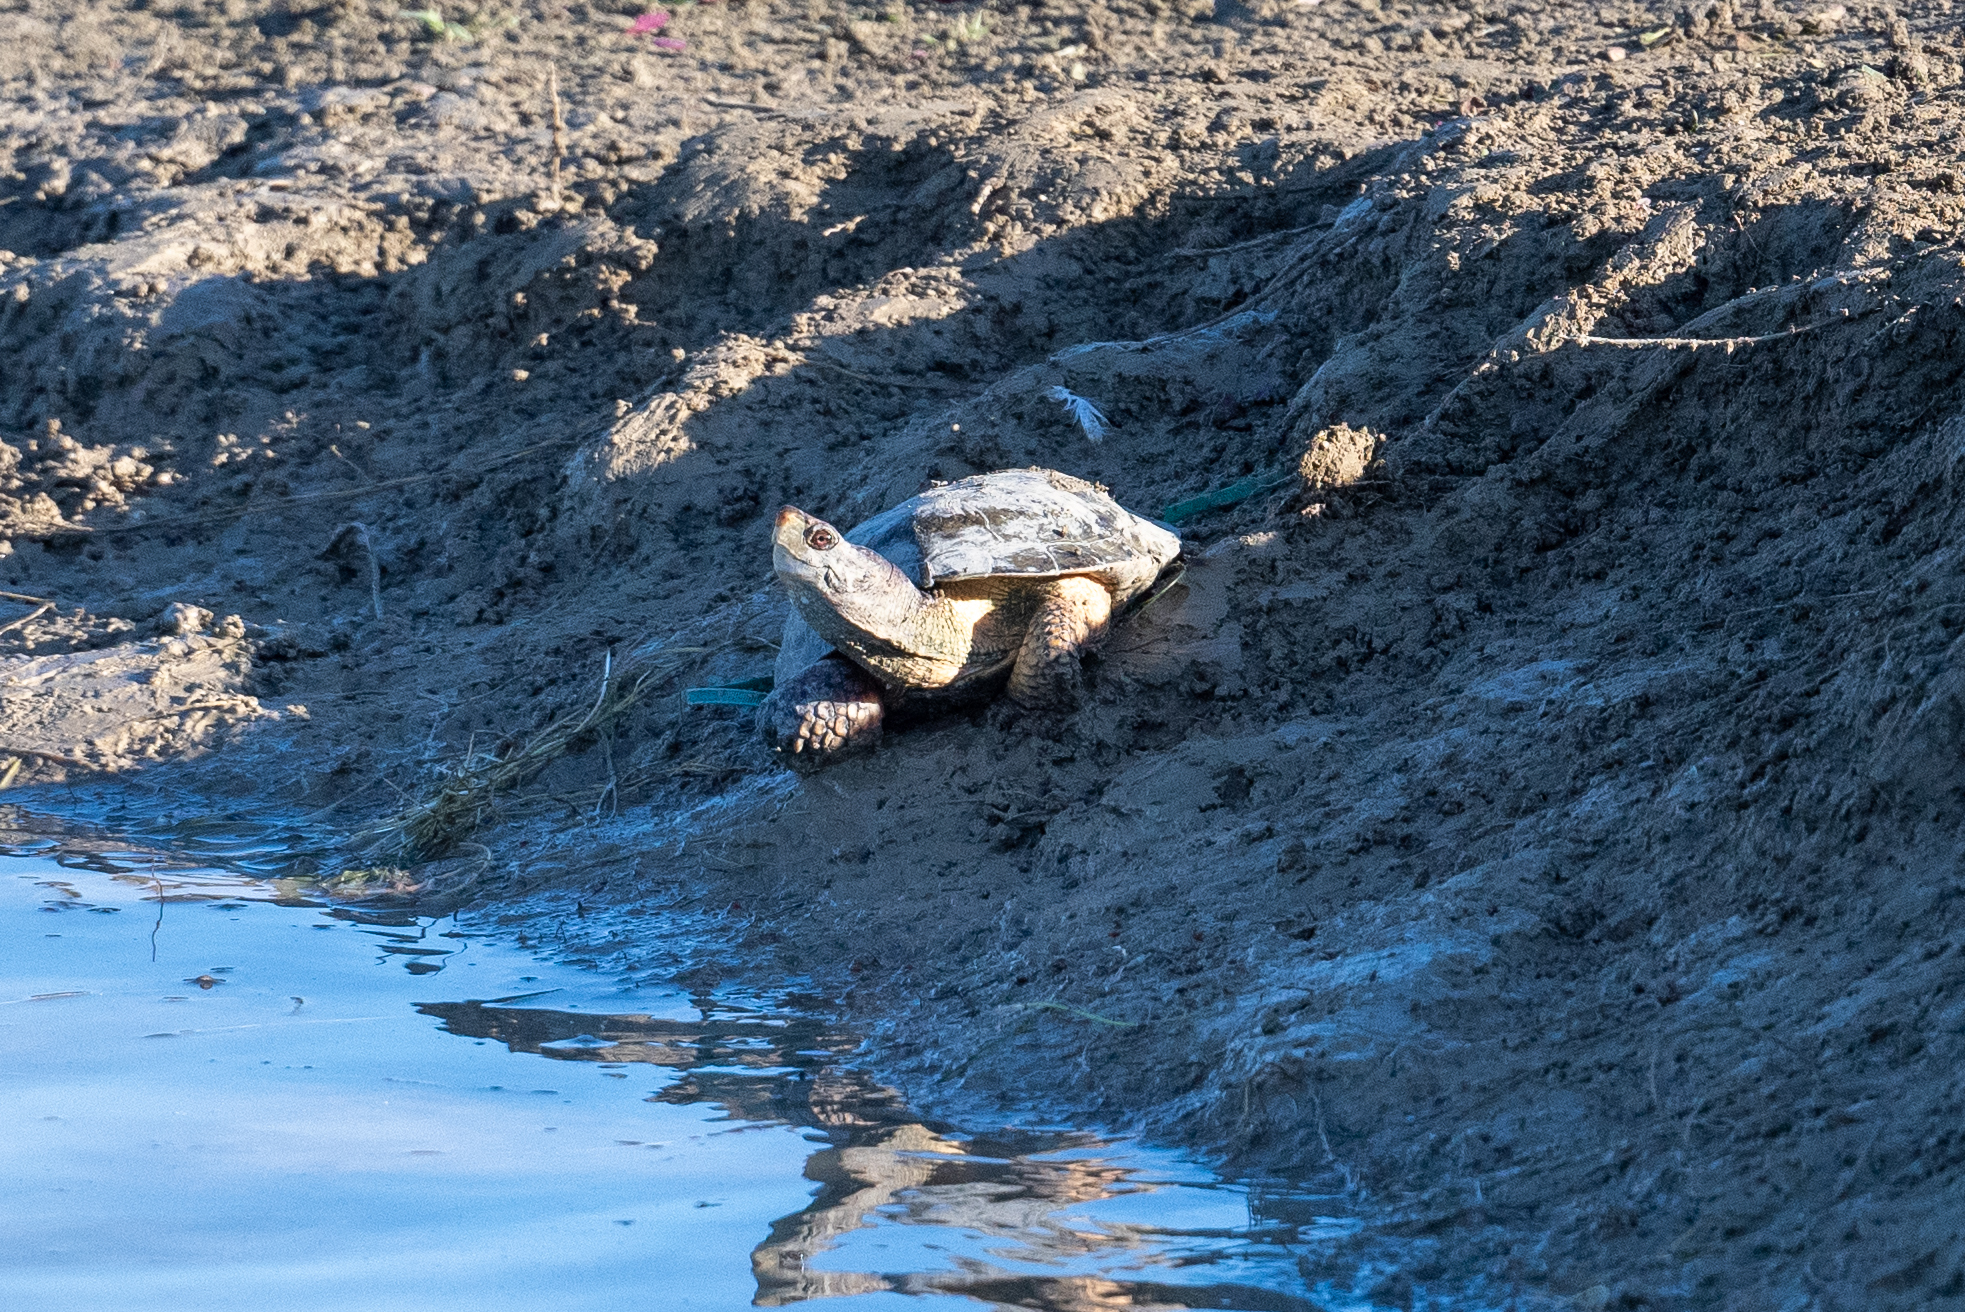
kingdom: Animalia
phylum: Chordata
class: Testudines
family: Emydidae
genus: Actinemys
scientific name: Actinemys marmorata
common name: Western pond turtle
